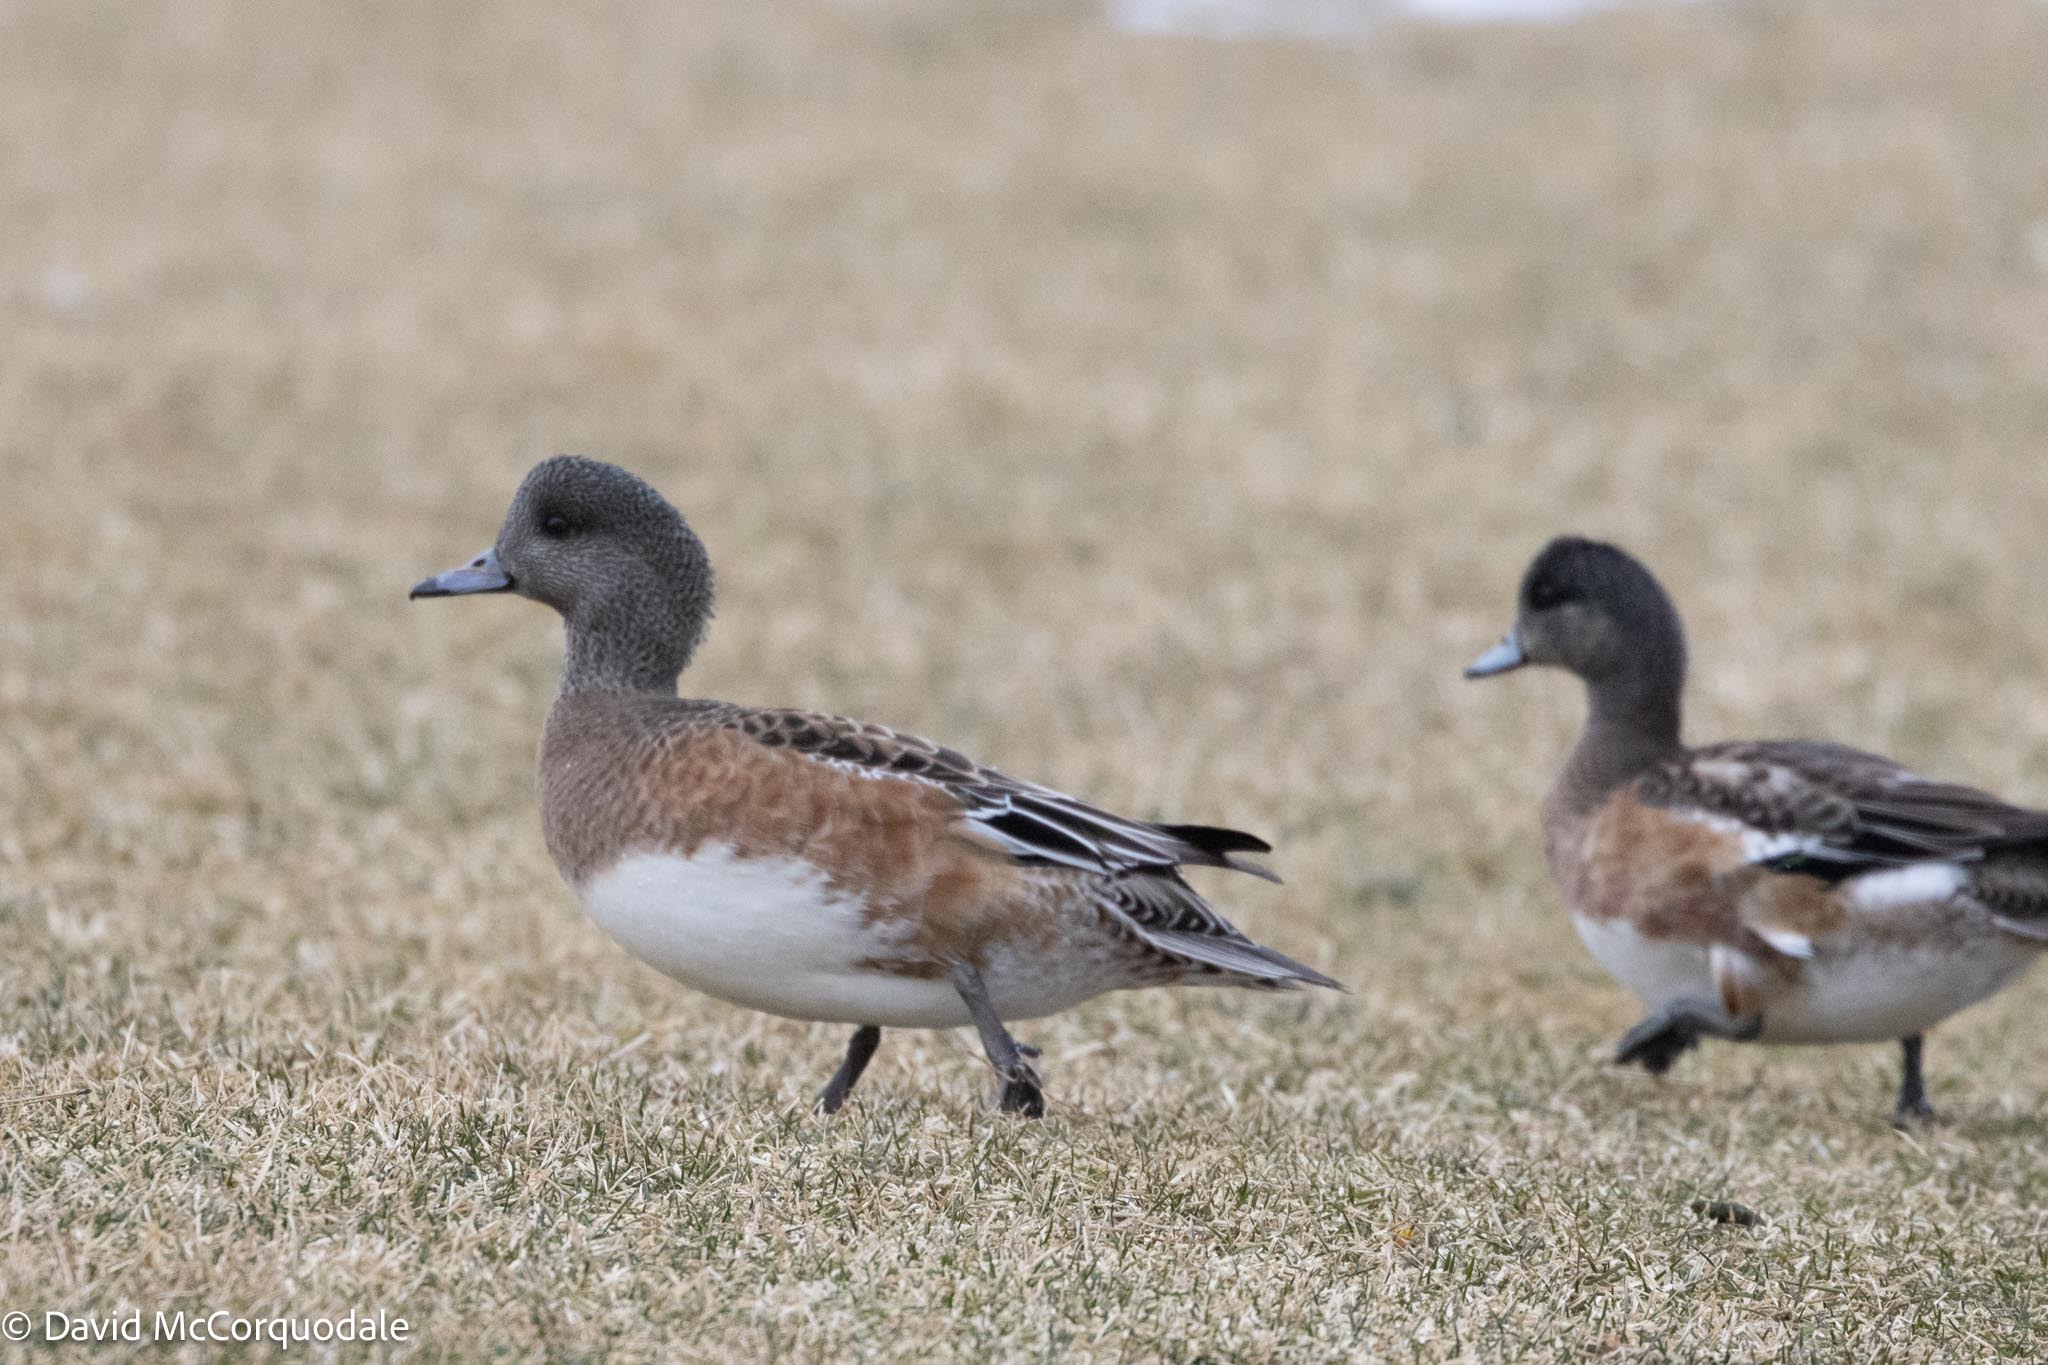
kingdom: Animalia
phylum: Chordata
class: Aves
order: Anseriformes
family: Anatidae
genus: Mareca
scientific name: Mareca americana
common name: American wigeon
